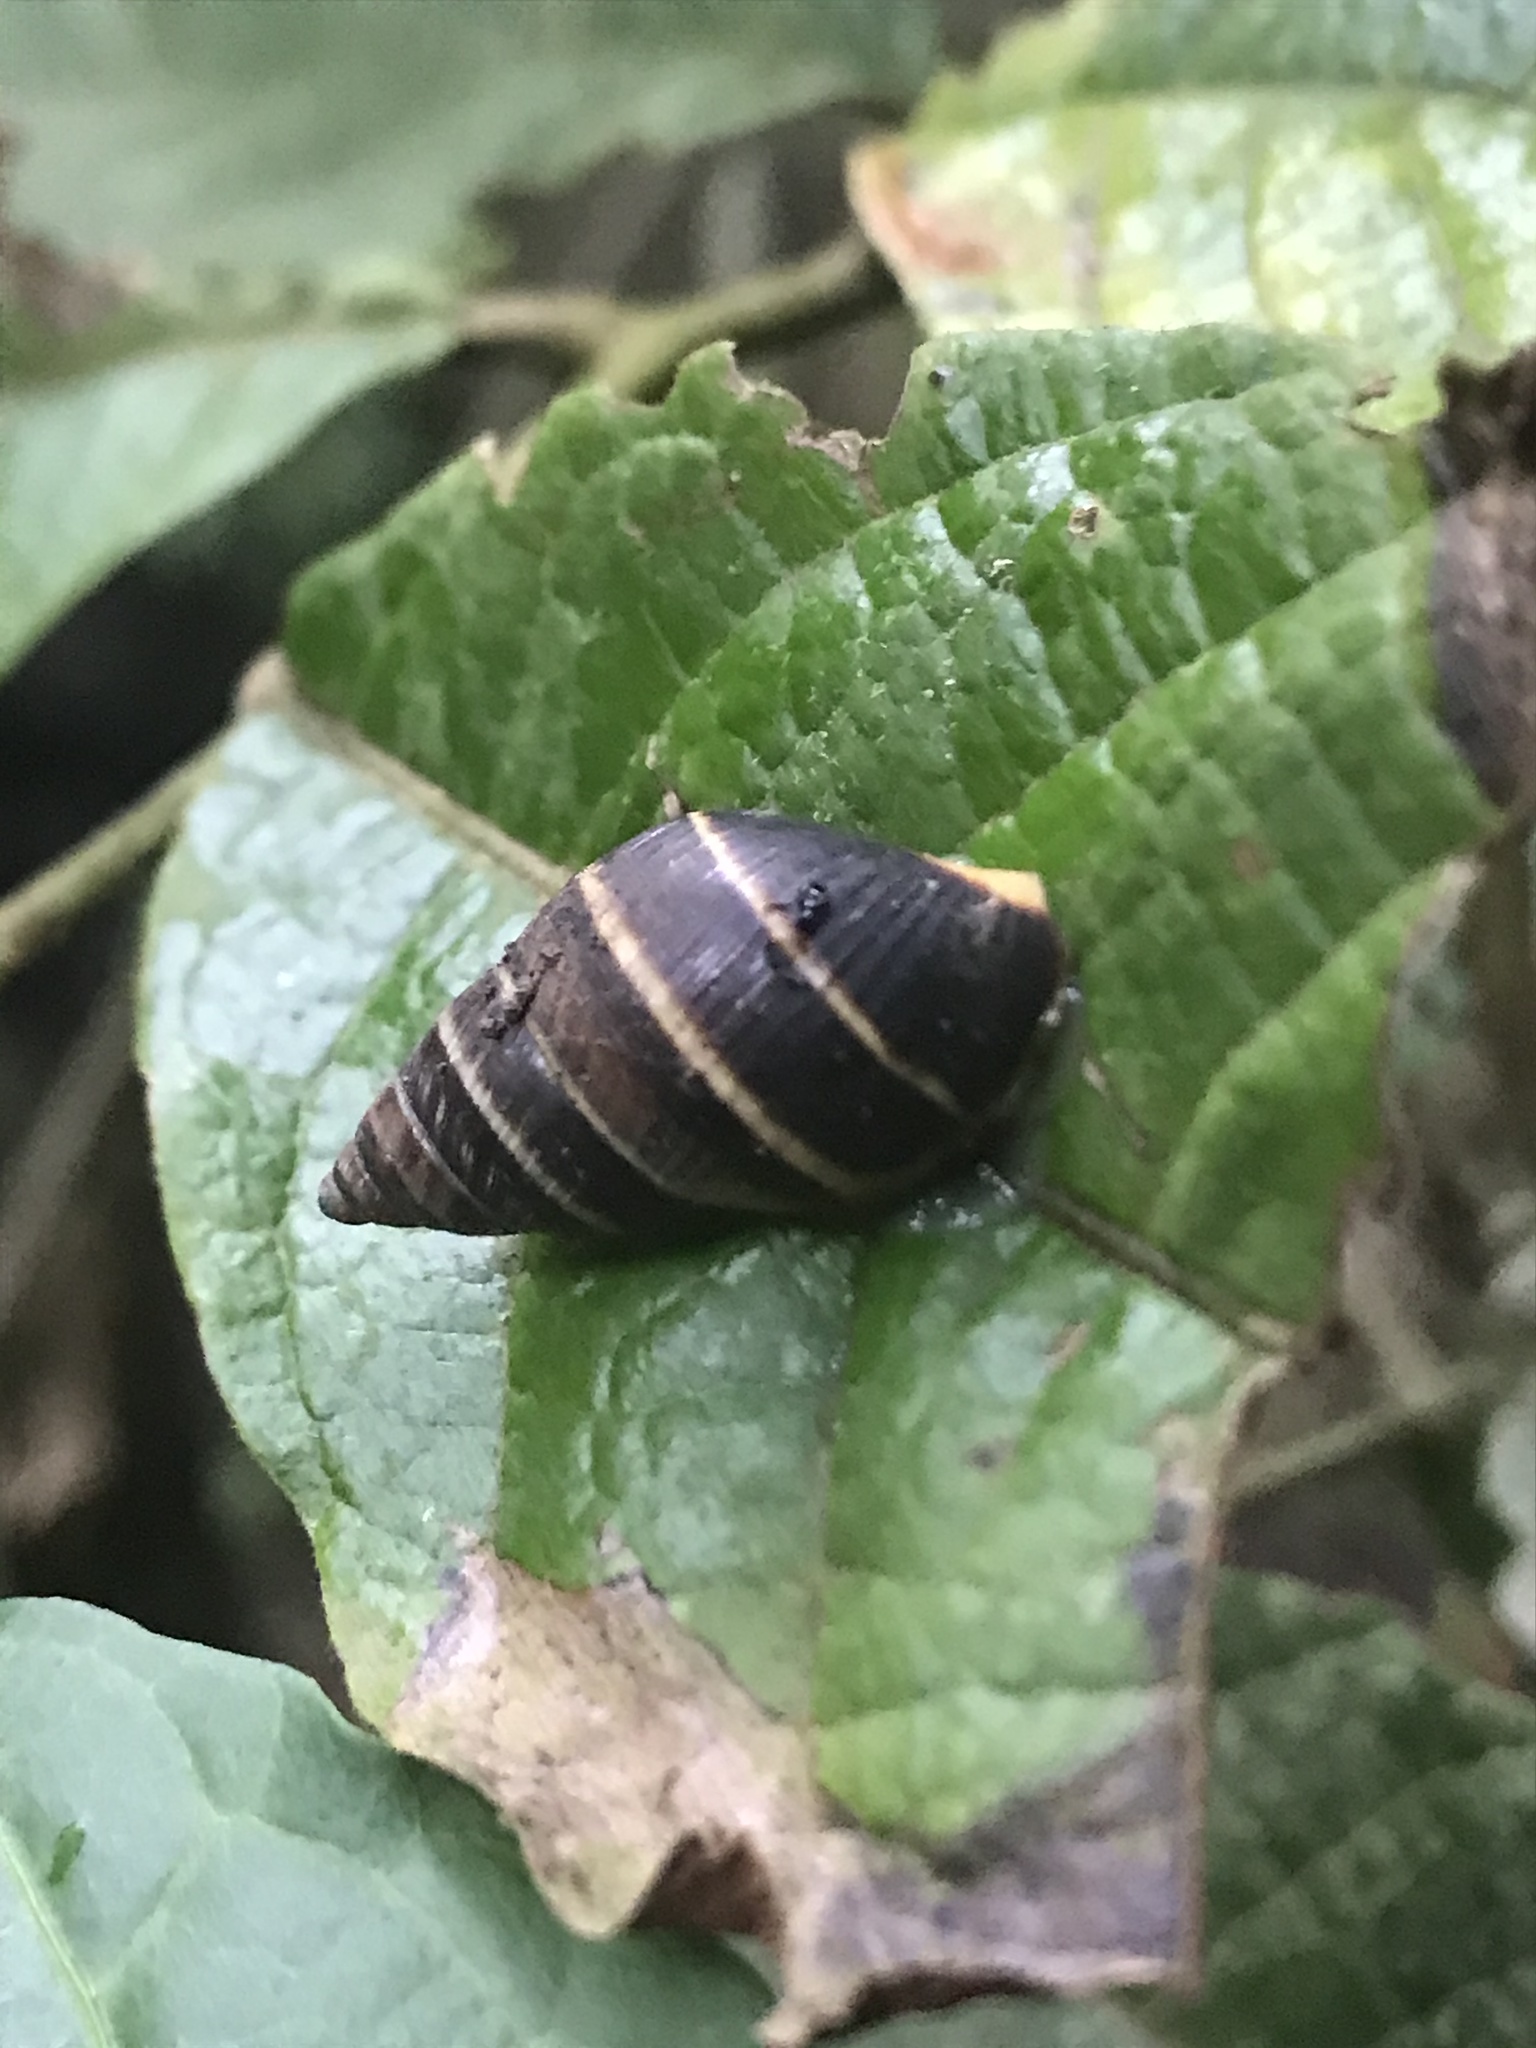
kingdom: Animalia
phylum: Mollusca
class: Gastropoda
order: Stylommatophora
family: Bulimulidae
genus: Drymaeus
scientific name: Drymaeus convexus
